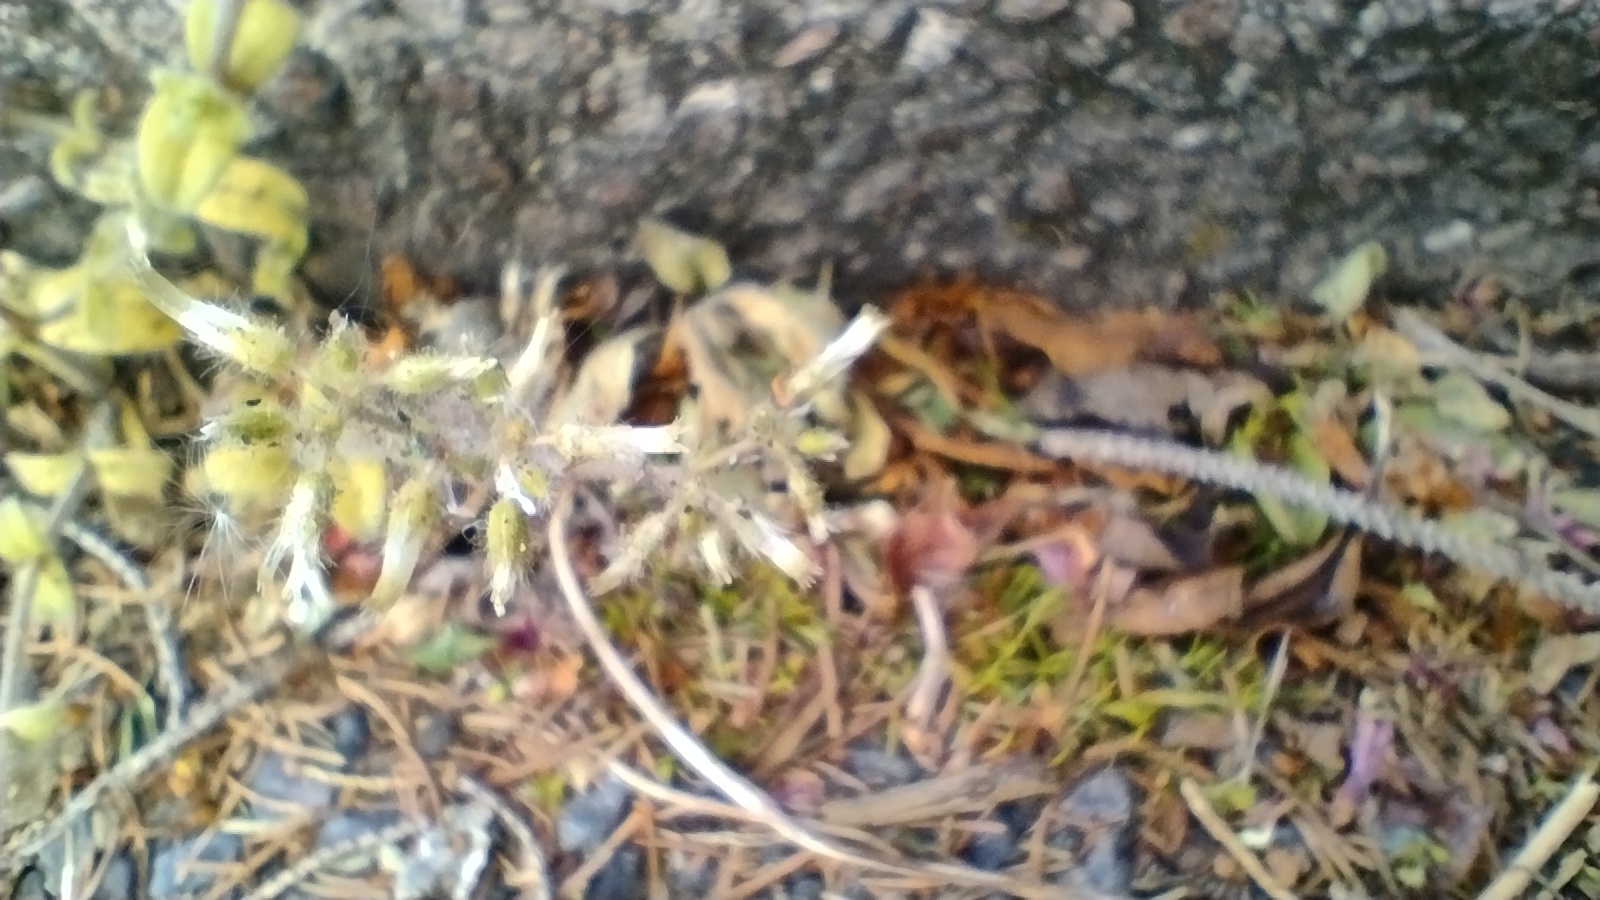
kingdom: Plantae
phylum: Tracheophyta
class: Magnoliopsida
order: Caryophyllales
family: Caryophyllaceae
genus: Cerastium
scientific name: Cerastium glomeratum
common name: Sticky chickweed
